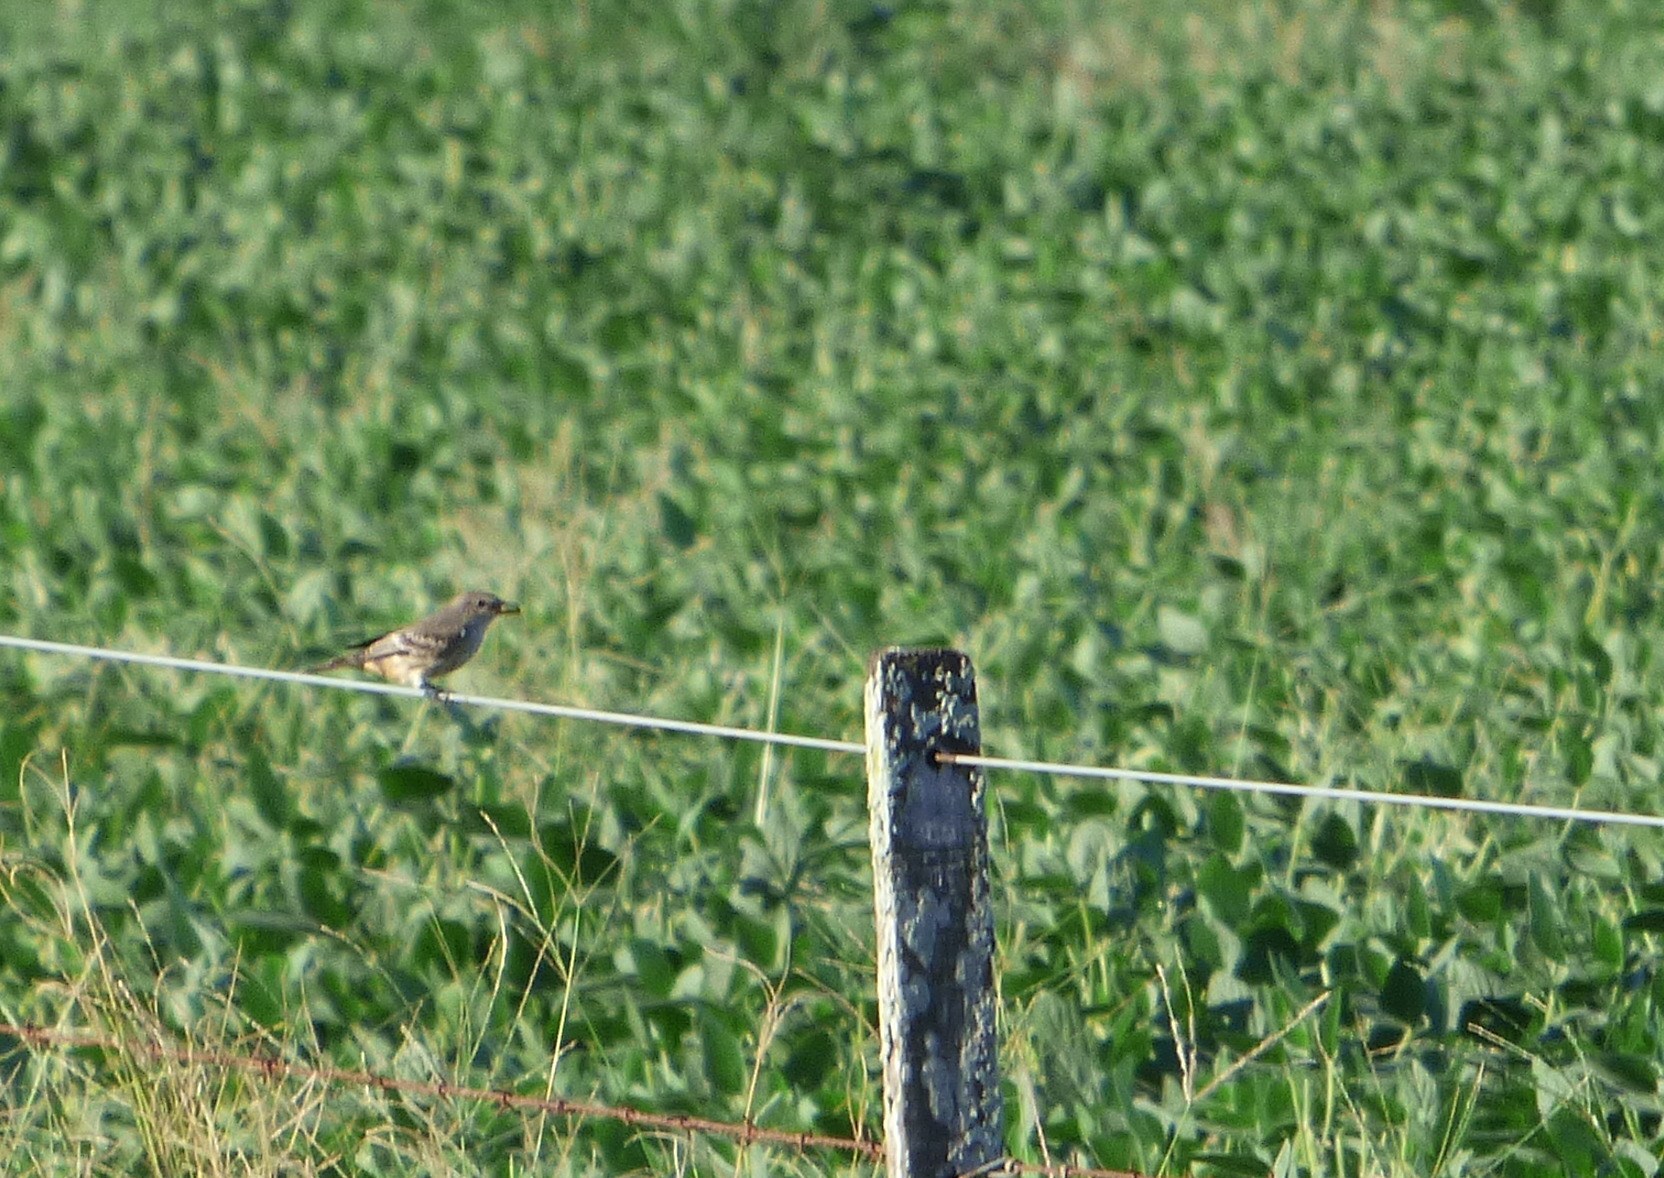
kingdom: Animalia
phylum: Chordata
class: Aves
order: Passeriformes
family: Tyrannidae
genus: Pyrocephalus
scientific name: Pyrocephalus rubinus
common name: Vermilion flycatcher
